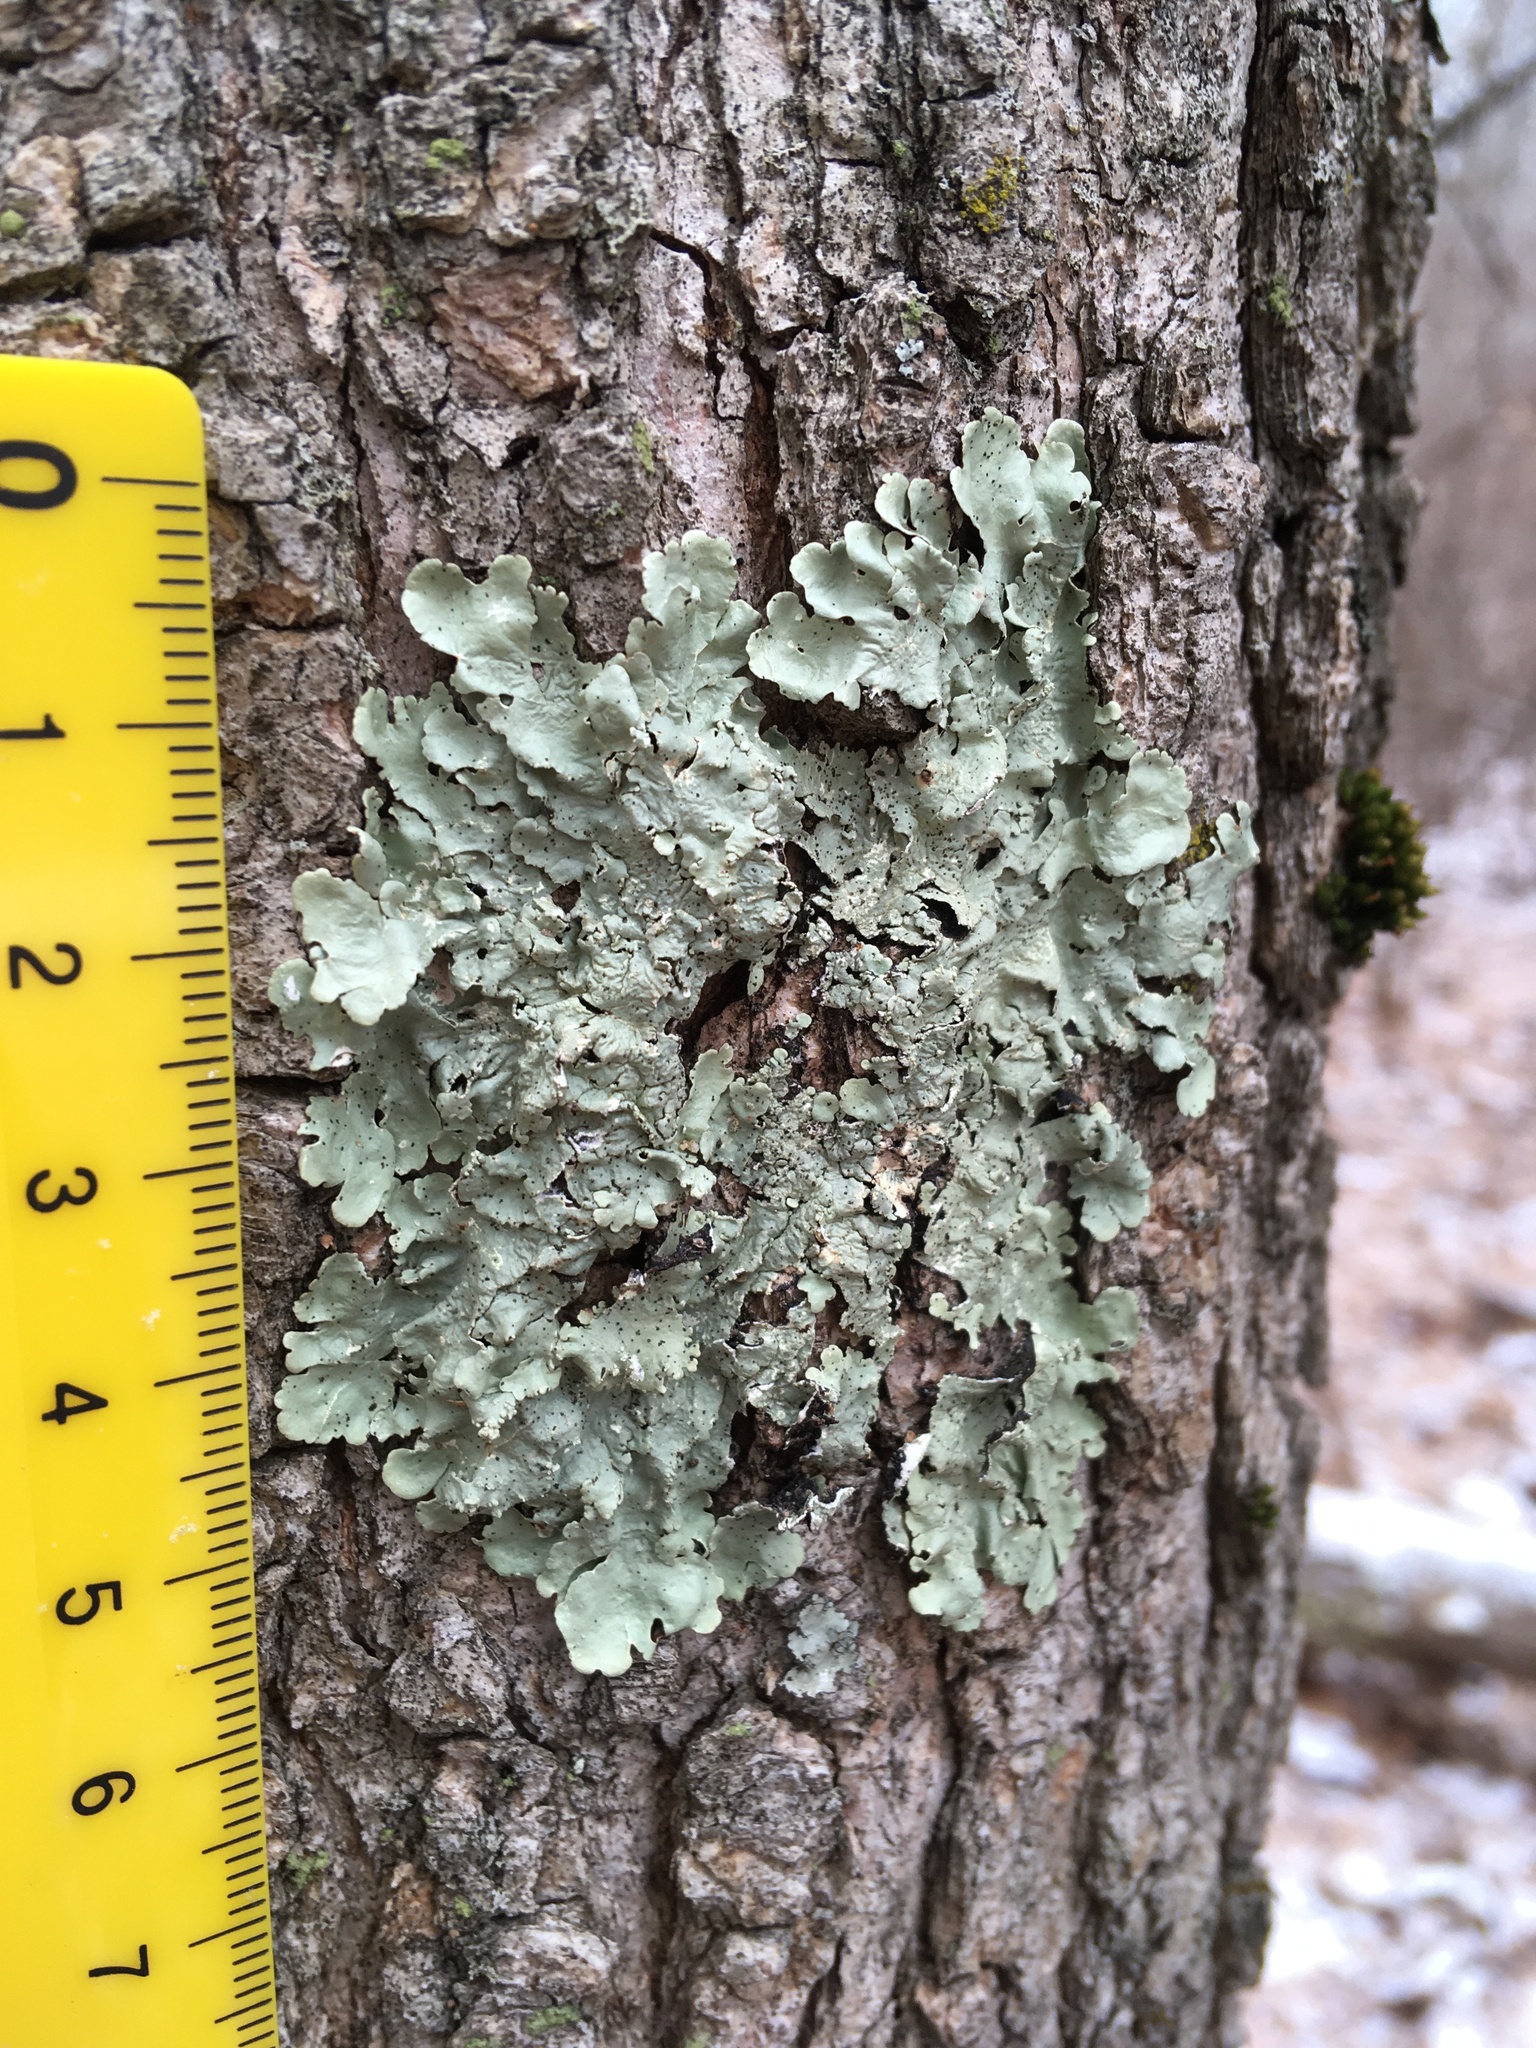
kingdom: Fungi
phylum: Ascomycota
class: Lecanoromycetes
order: Lecanorales
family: Parmeliaceae
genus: Flavoparmelia
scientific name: Flavoparmelia caperata
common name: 40-mile per hour lichen
